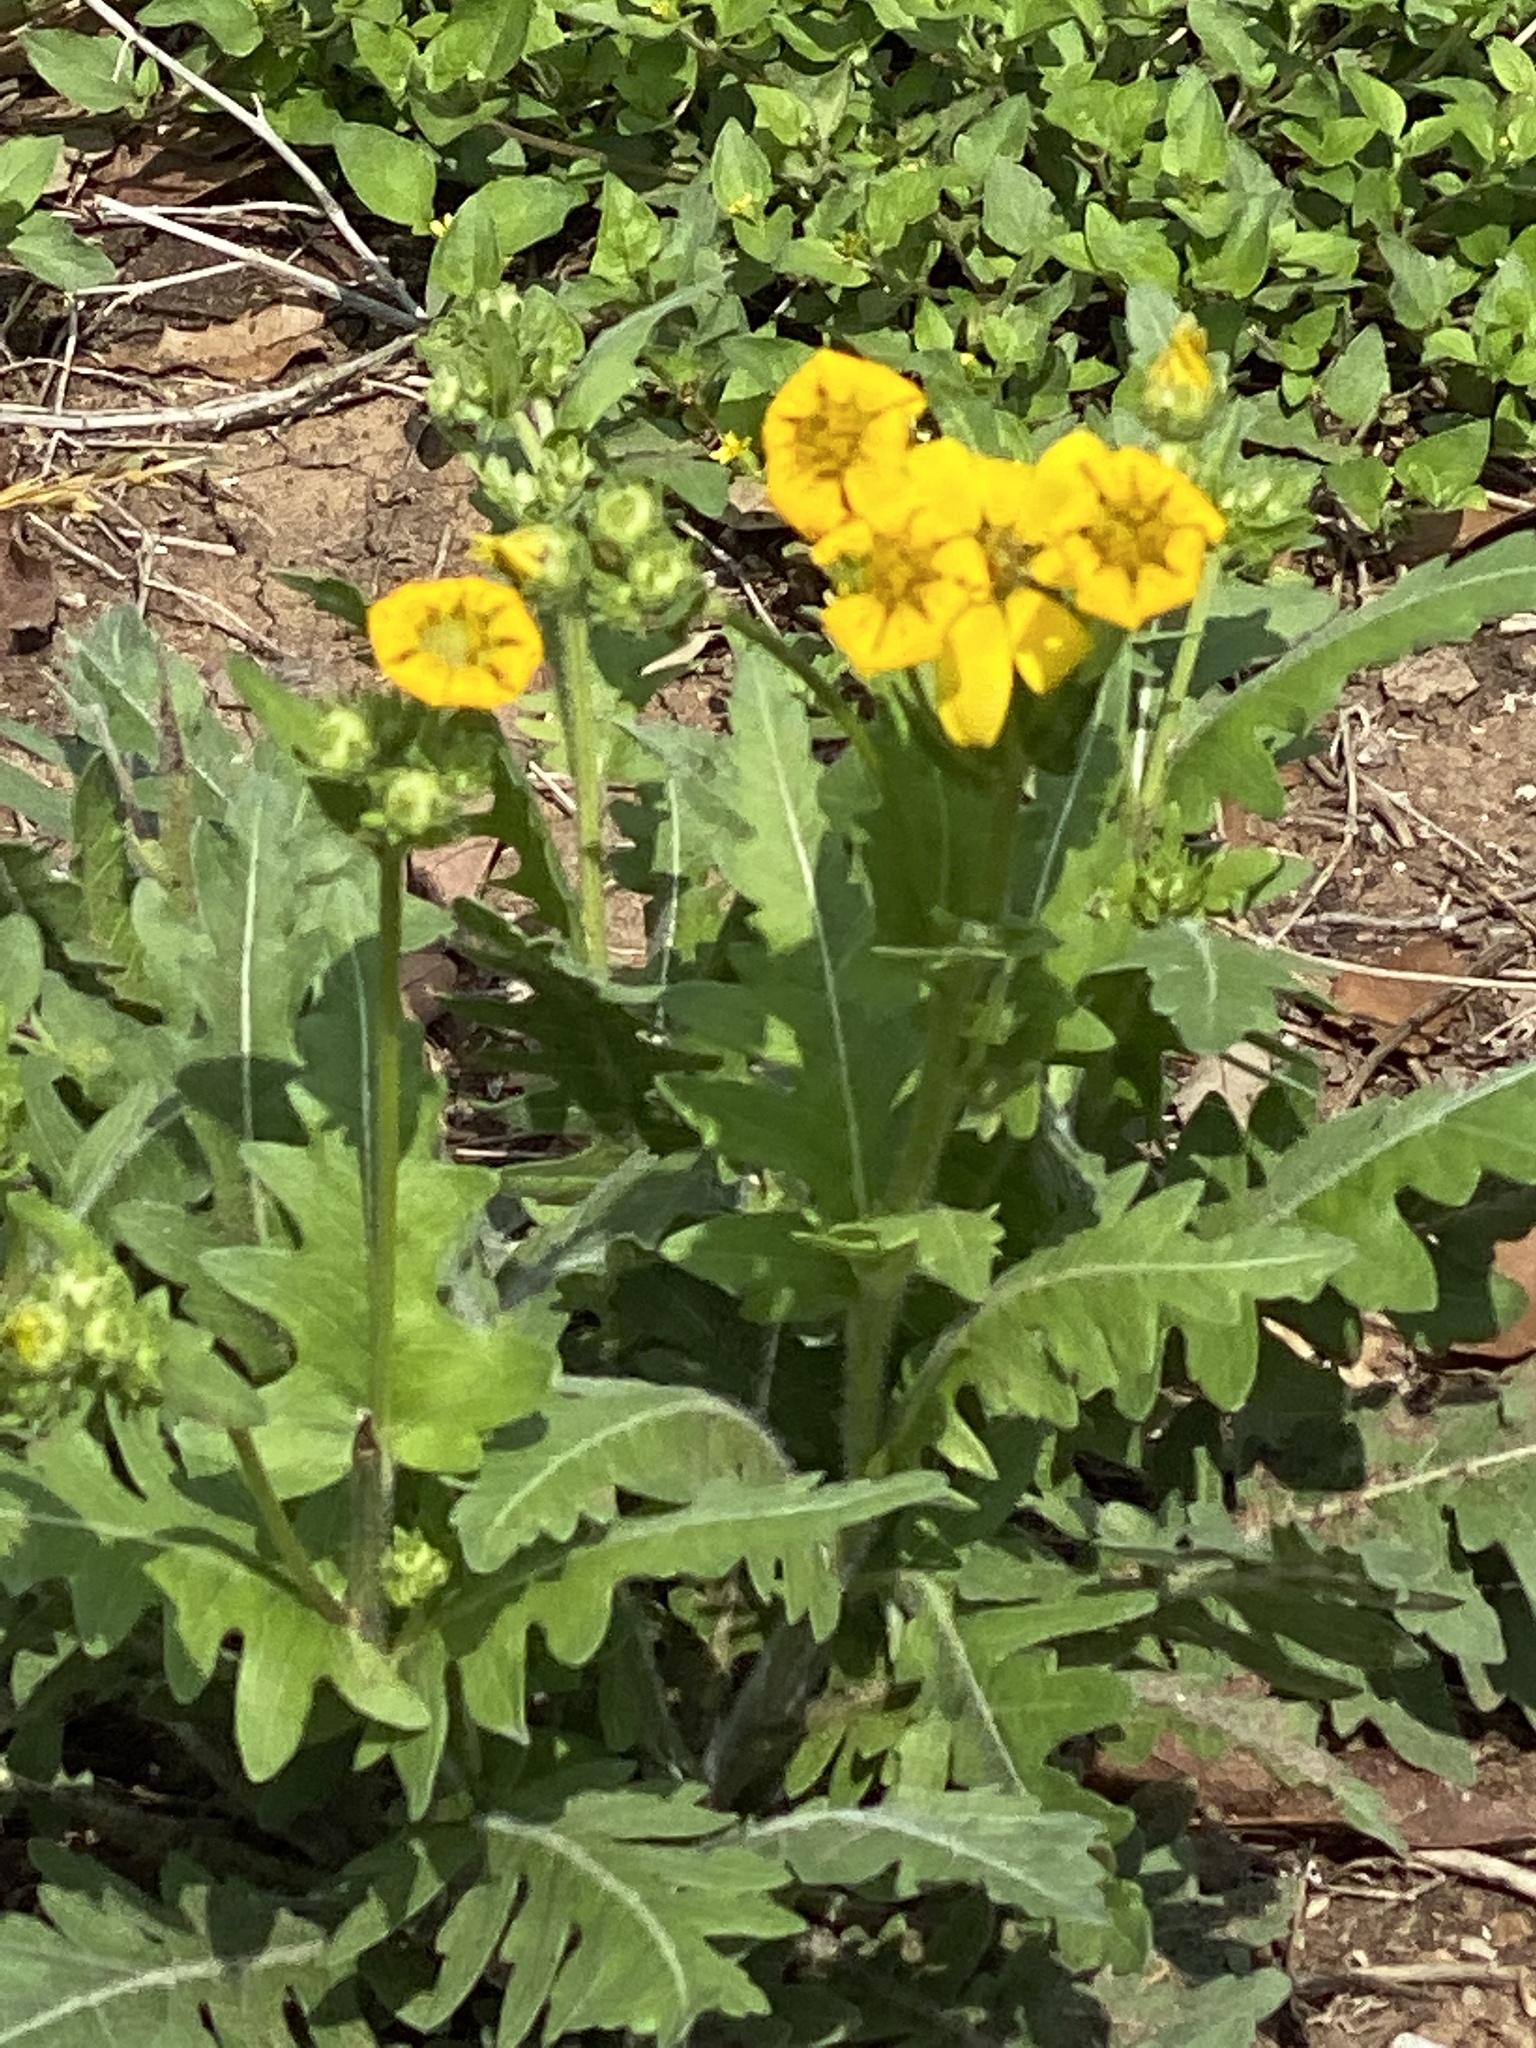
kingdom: Plantae
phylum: Tracheophyta
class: Magnoliopsida
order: Asterales
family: Asteraceae
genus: Engelmannia
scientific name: Engelmannia peristenia
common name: Engelmann's daisy
